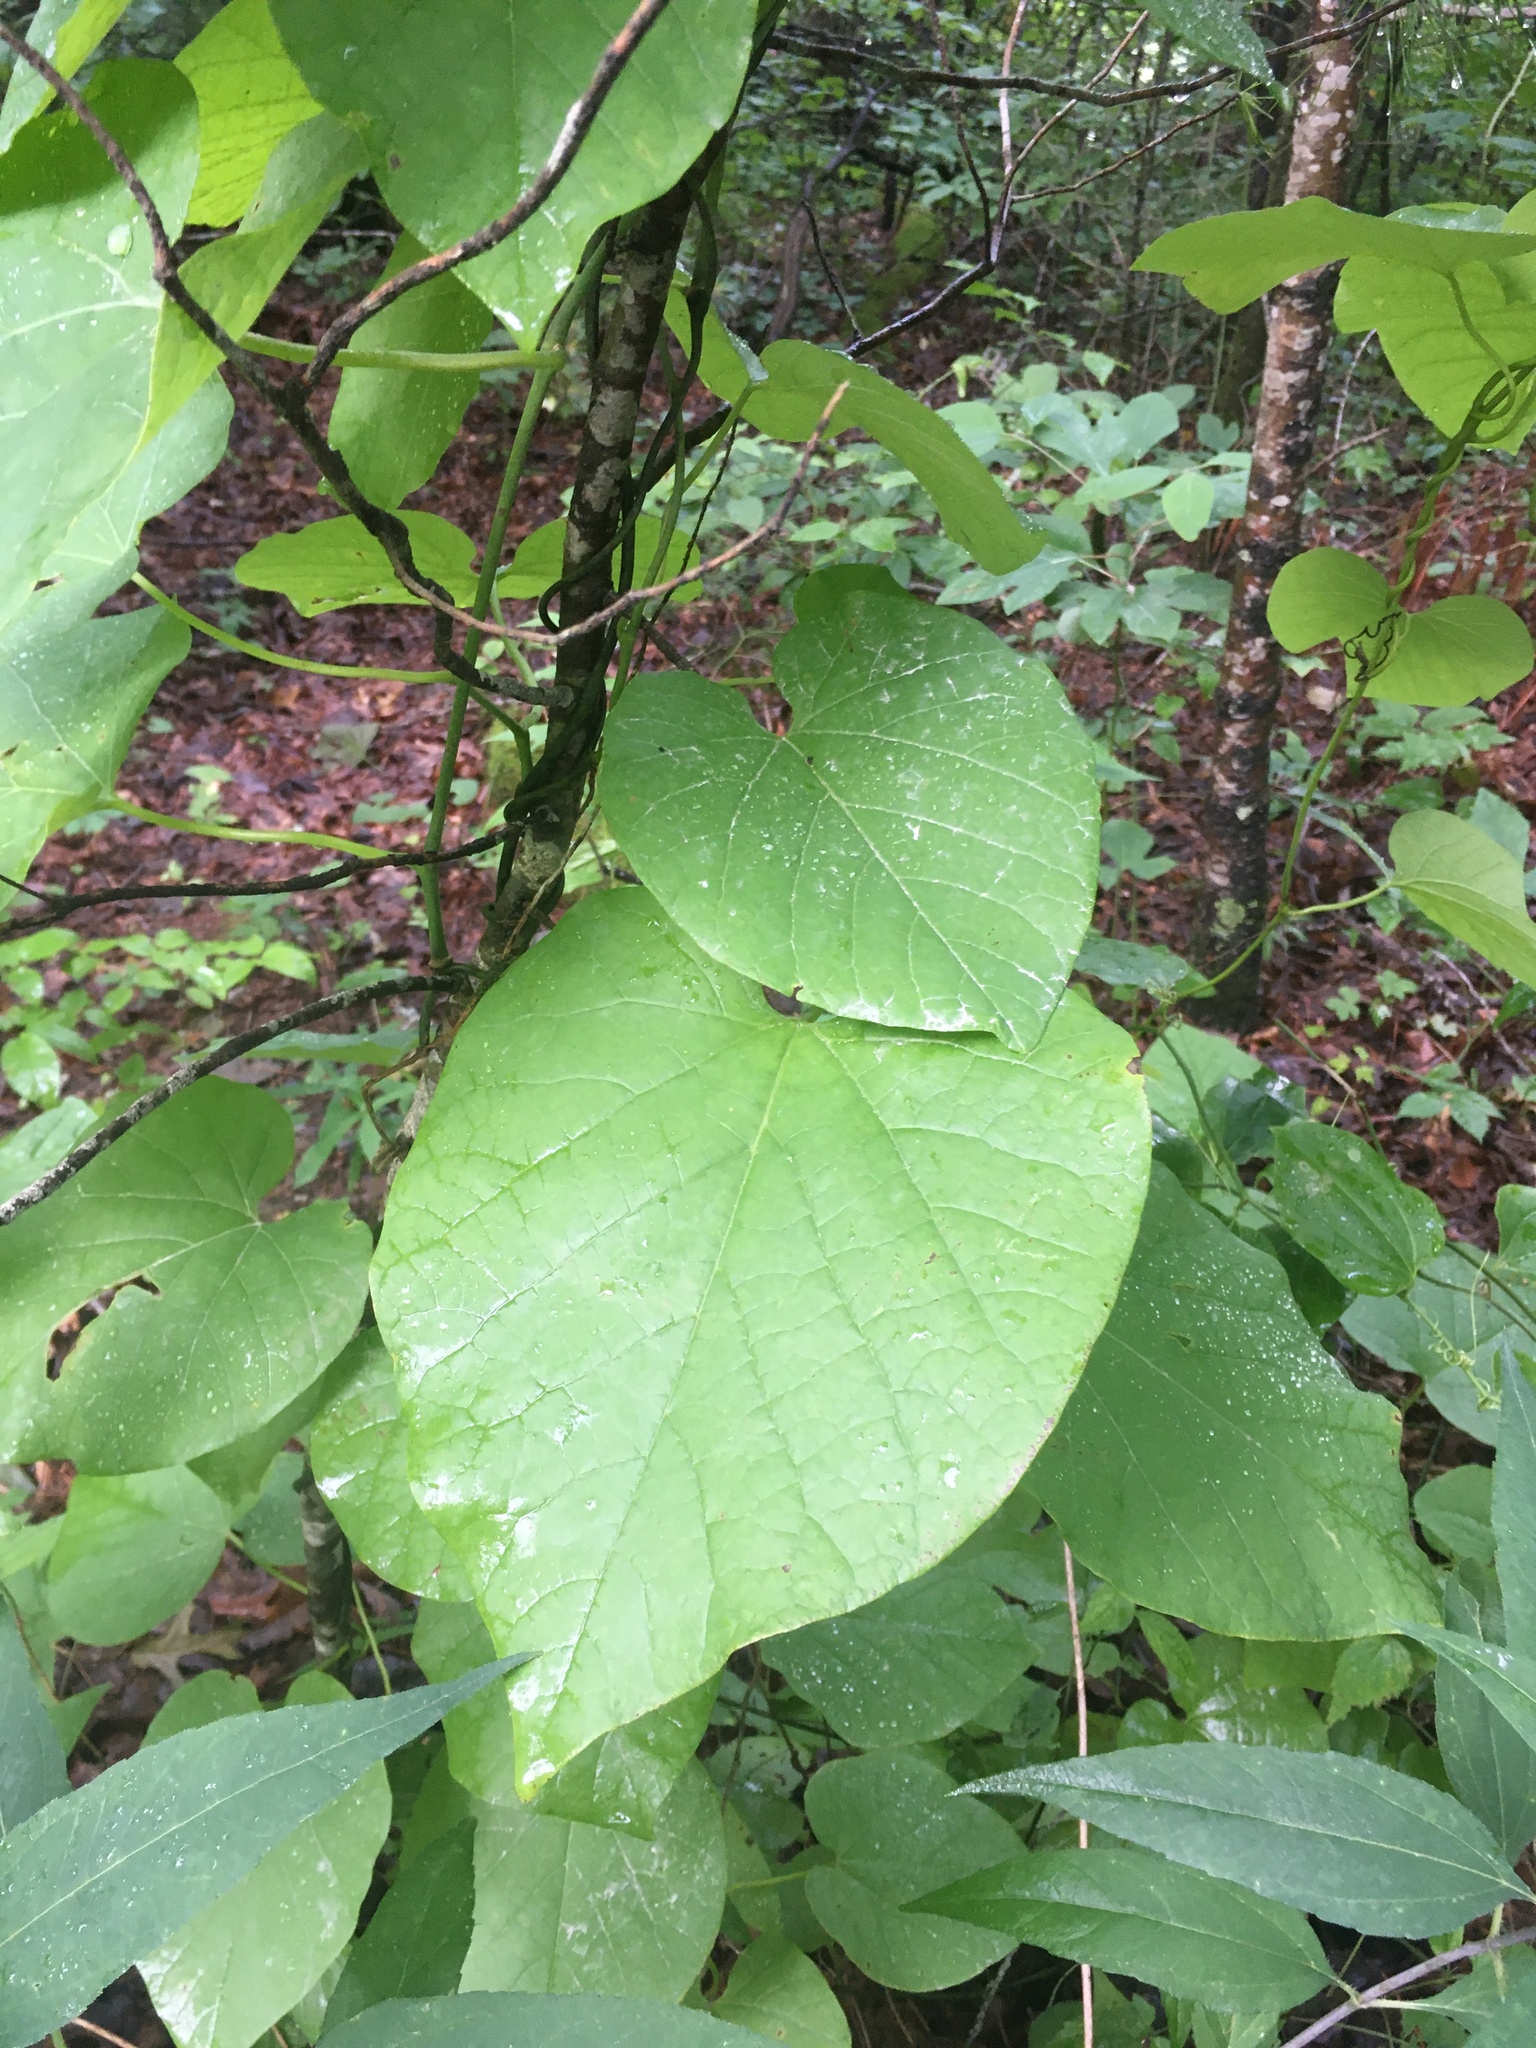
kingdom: Plantae
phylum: Tracheophyta
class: Magnoliopsida
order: Piperales
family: Aristolochiaceae
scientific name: Aristolochiaceae
